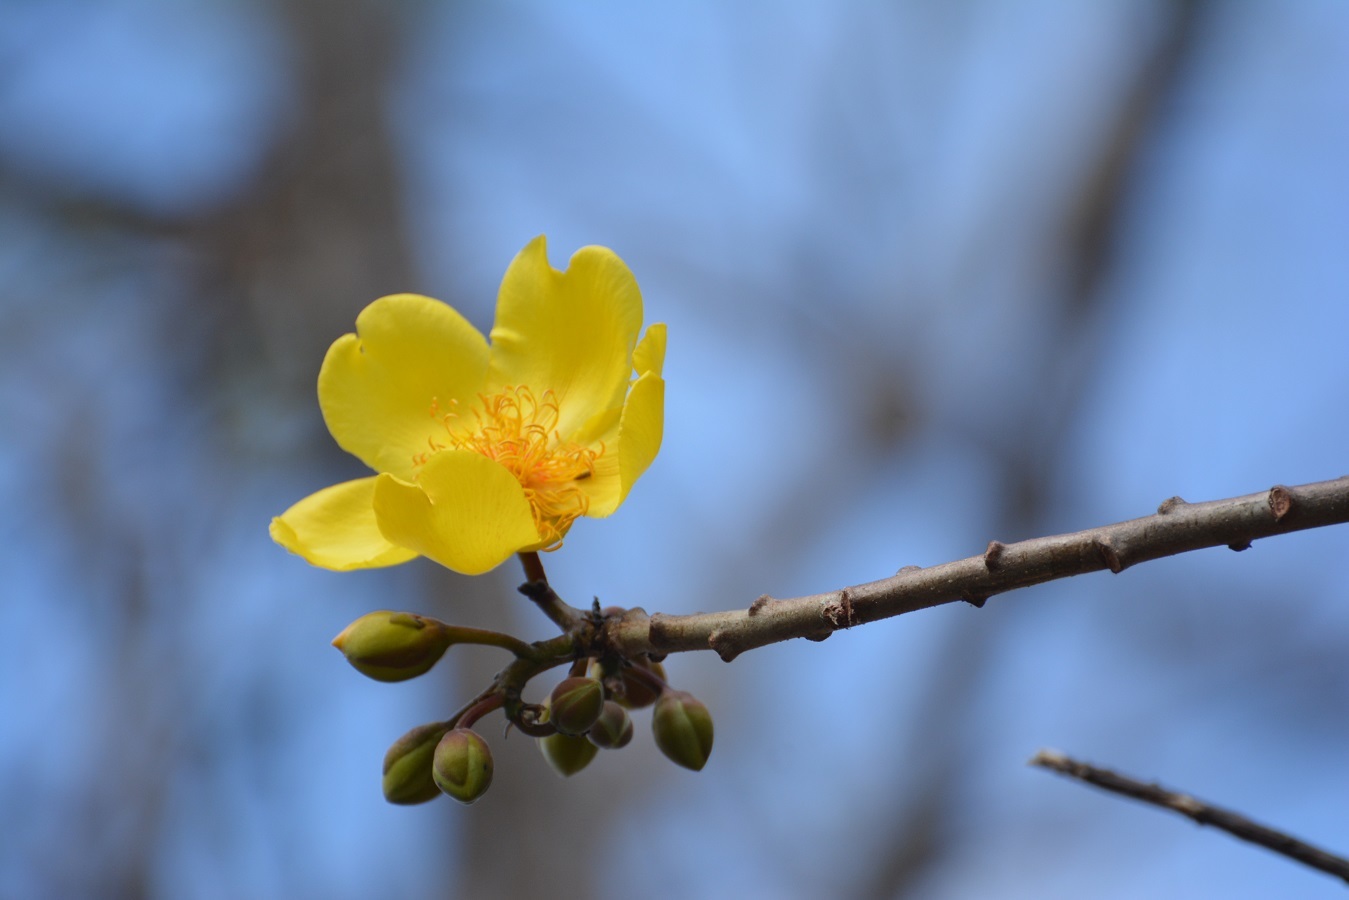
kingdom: Plantae
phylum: Tracheophyta
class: Magnoliopsida
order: Malvales
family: Cochlospermaceae
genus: Cochlospermum
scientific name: Cochlospermum vitifolium
